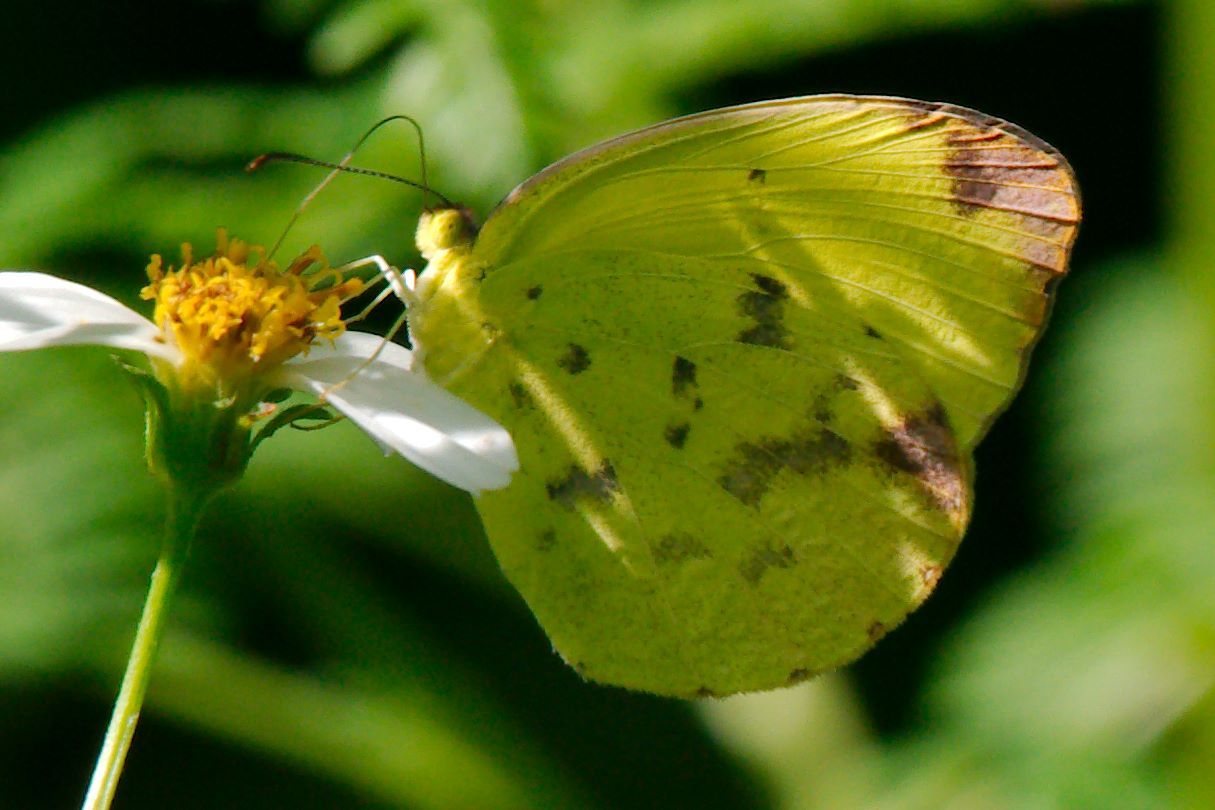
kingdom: Animalia
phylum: Arthropoda
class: Insecta
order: Lepidoptera
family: Pieridae
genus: Pyrisitia
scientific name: Pyrisitia dina
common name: Dina yellow
